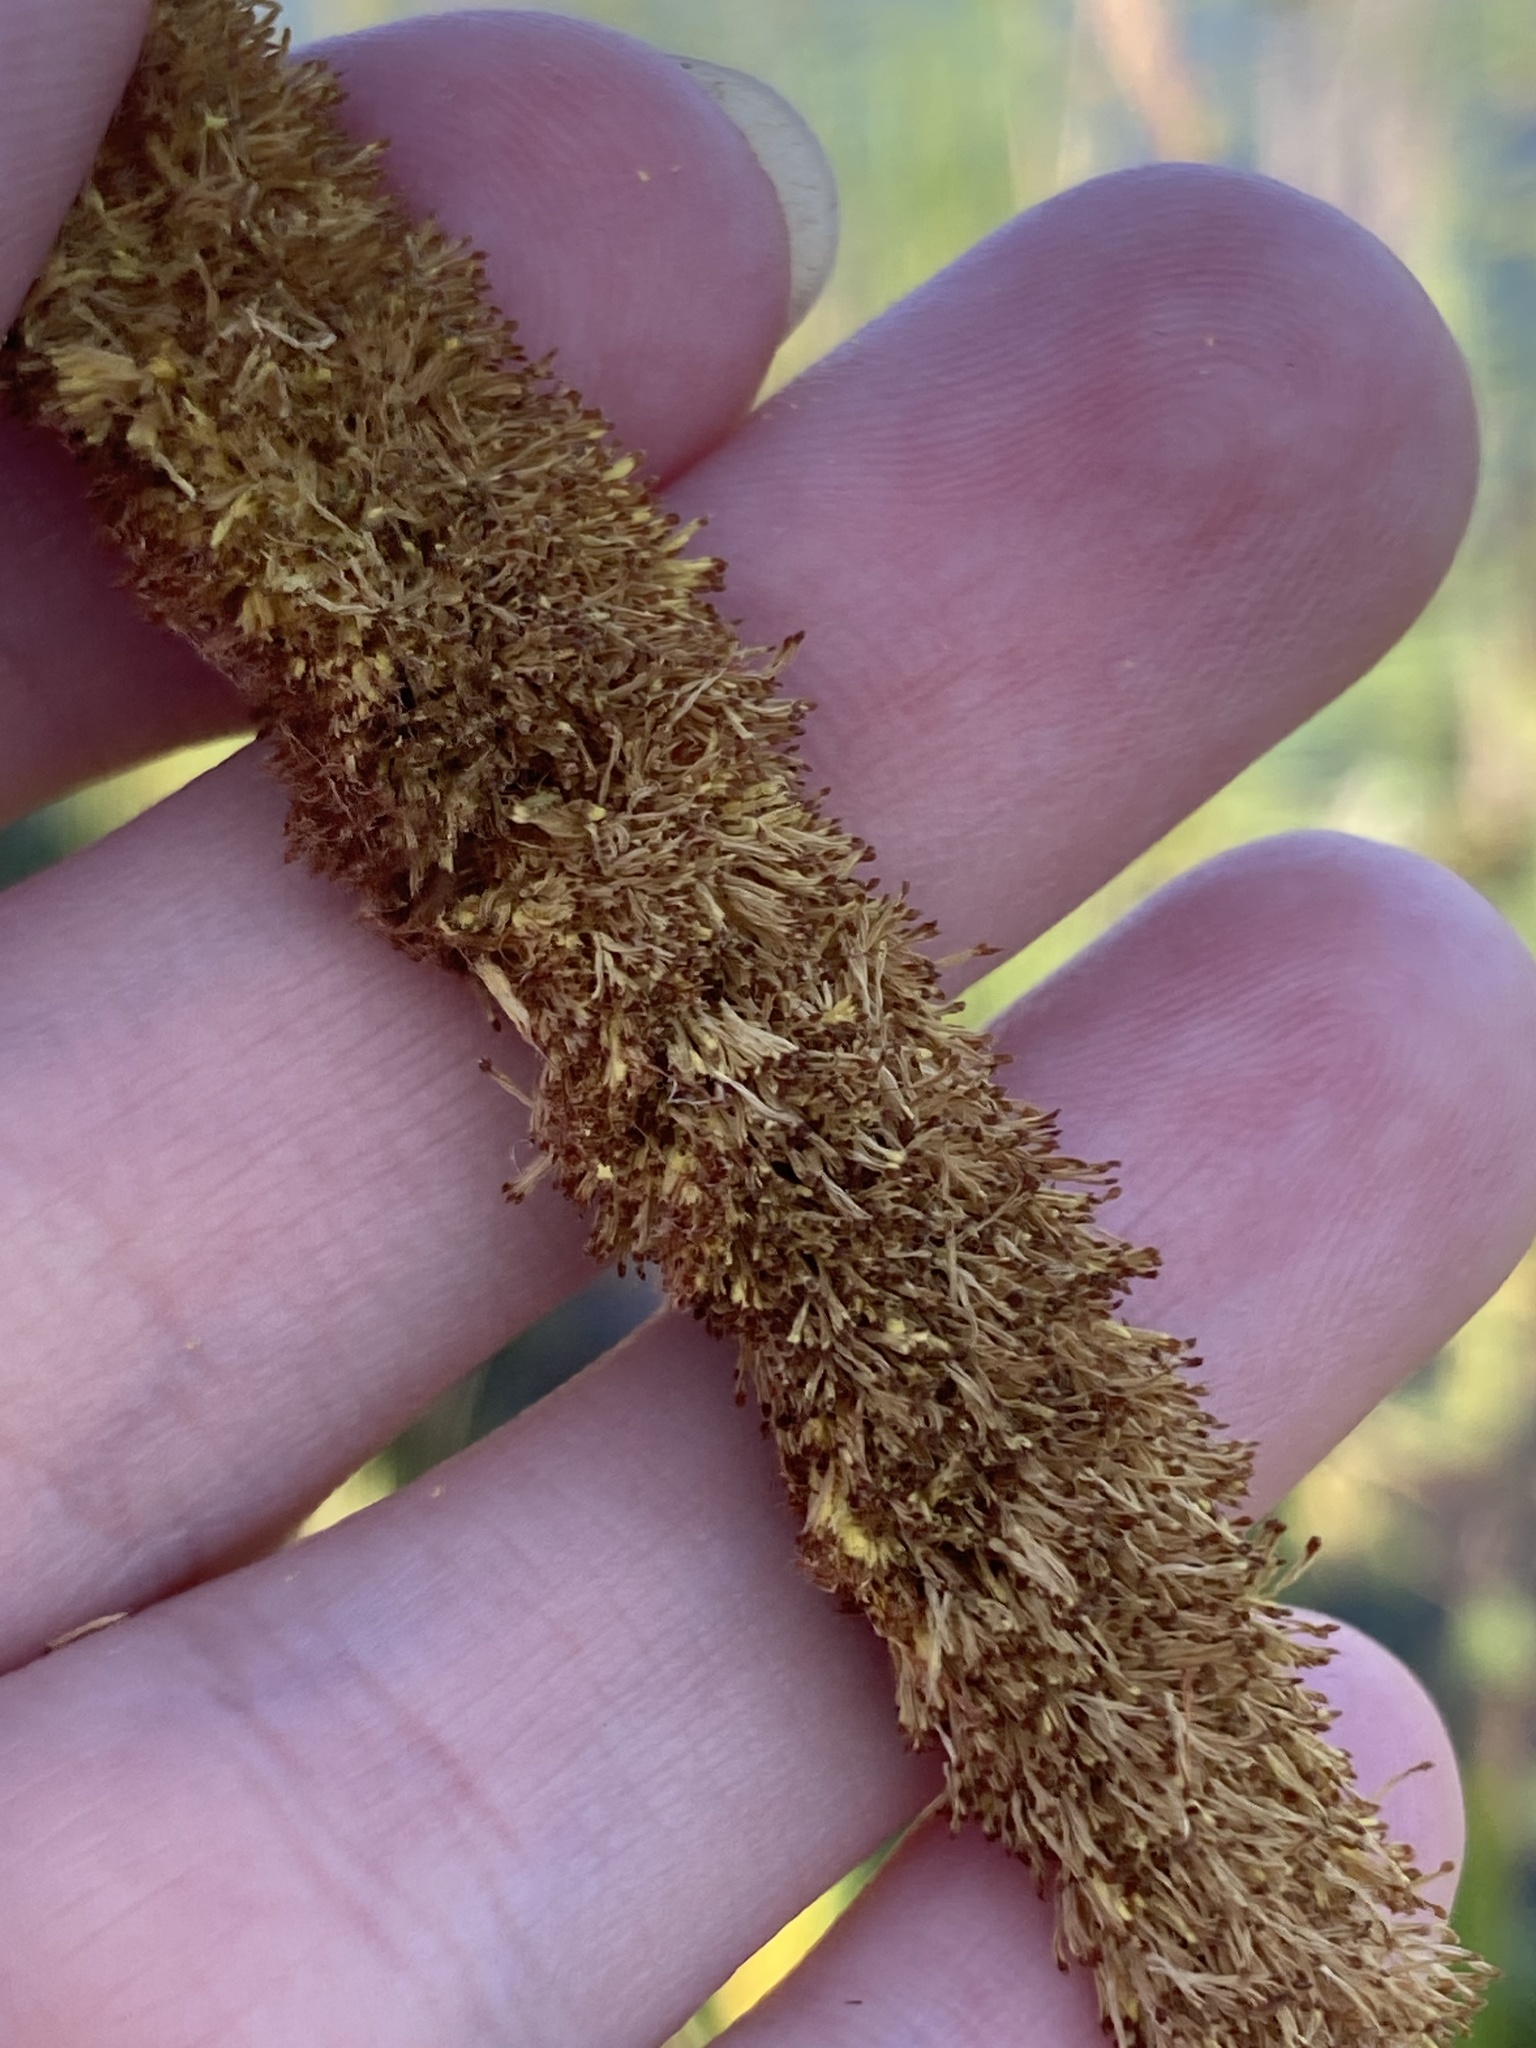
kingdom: Plantae
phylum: Tracheophyta
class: Liliopsida
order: Poales
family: Typhaceae
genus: Typha
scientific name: Typha
